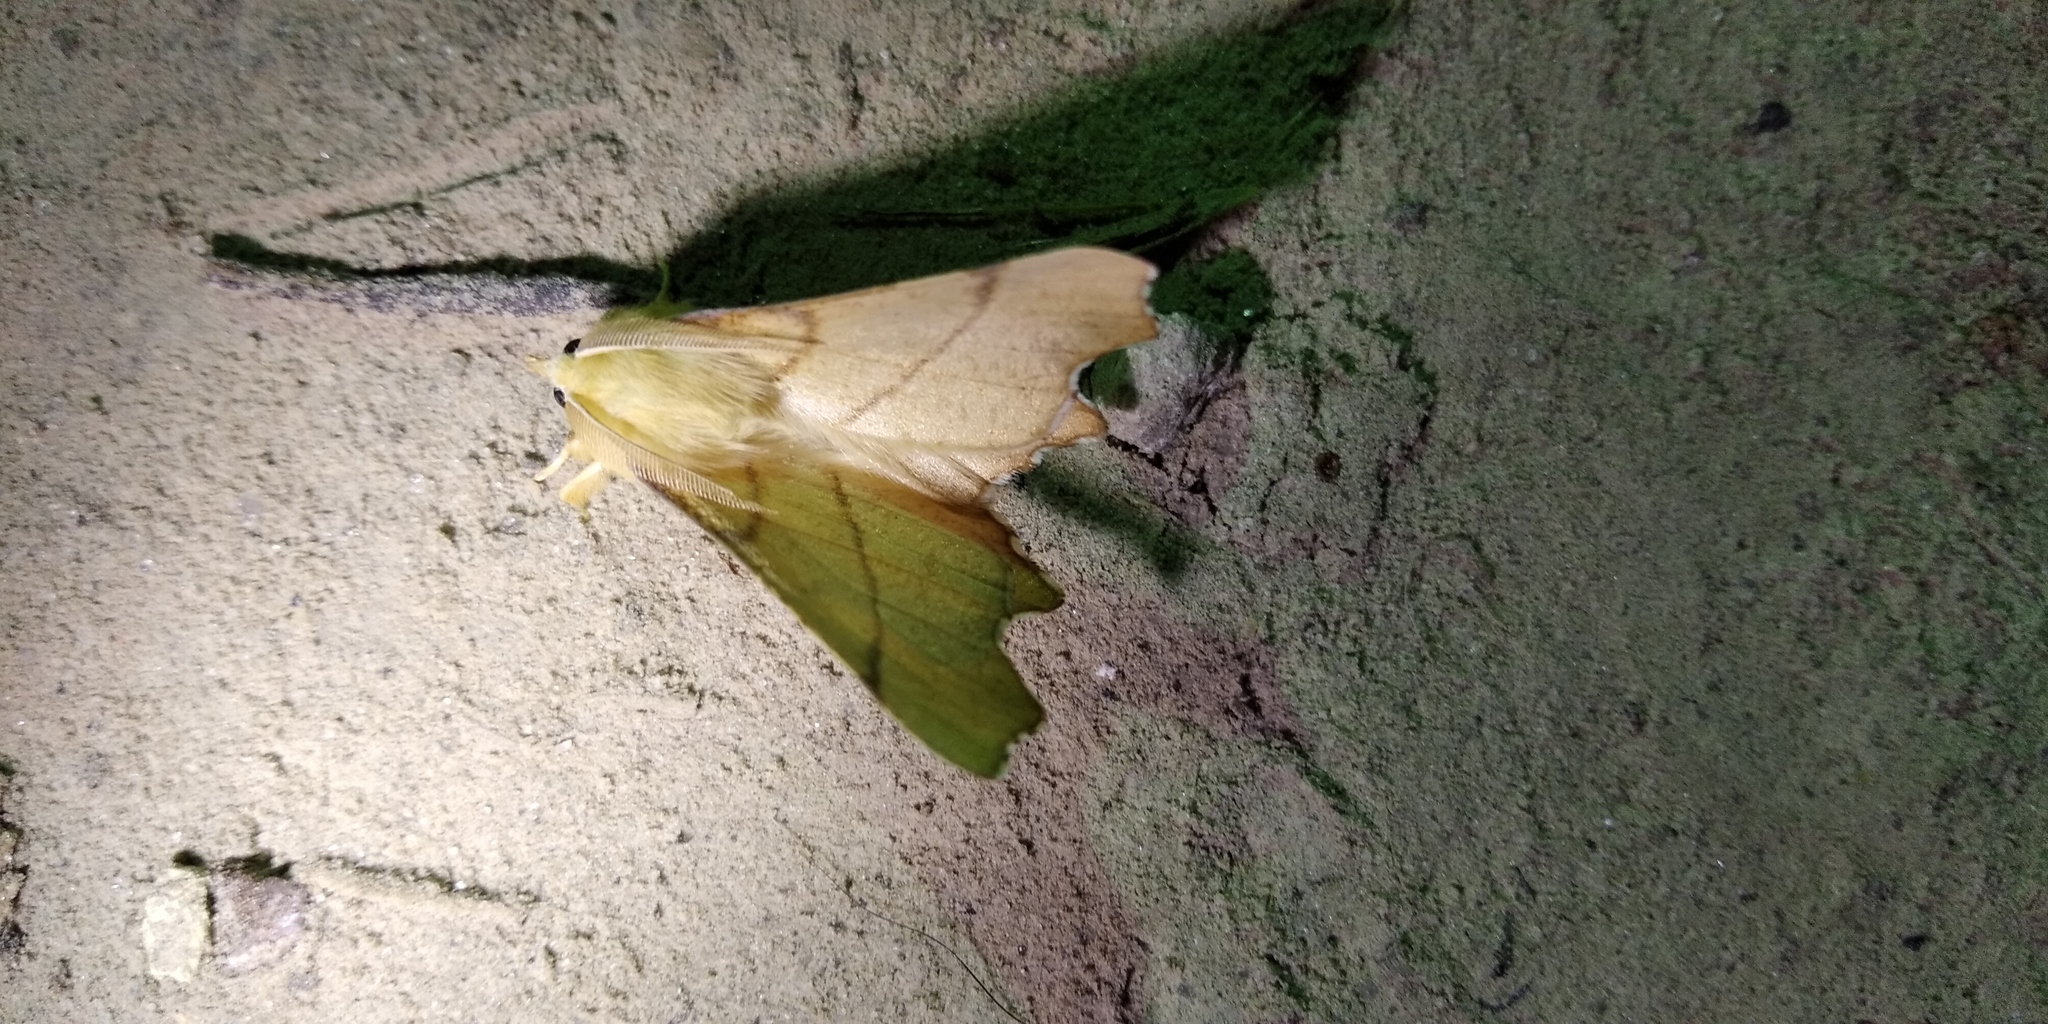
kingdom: Animalia
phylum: Arthropoda
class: Insecta
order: Lepidoptera
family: Geometridae
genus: Ennomos
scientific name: Ennomos erosaria
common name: September thorn
